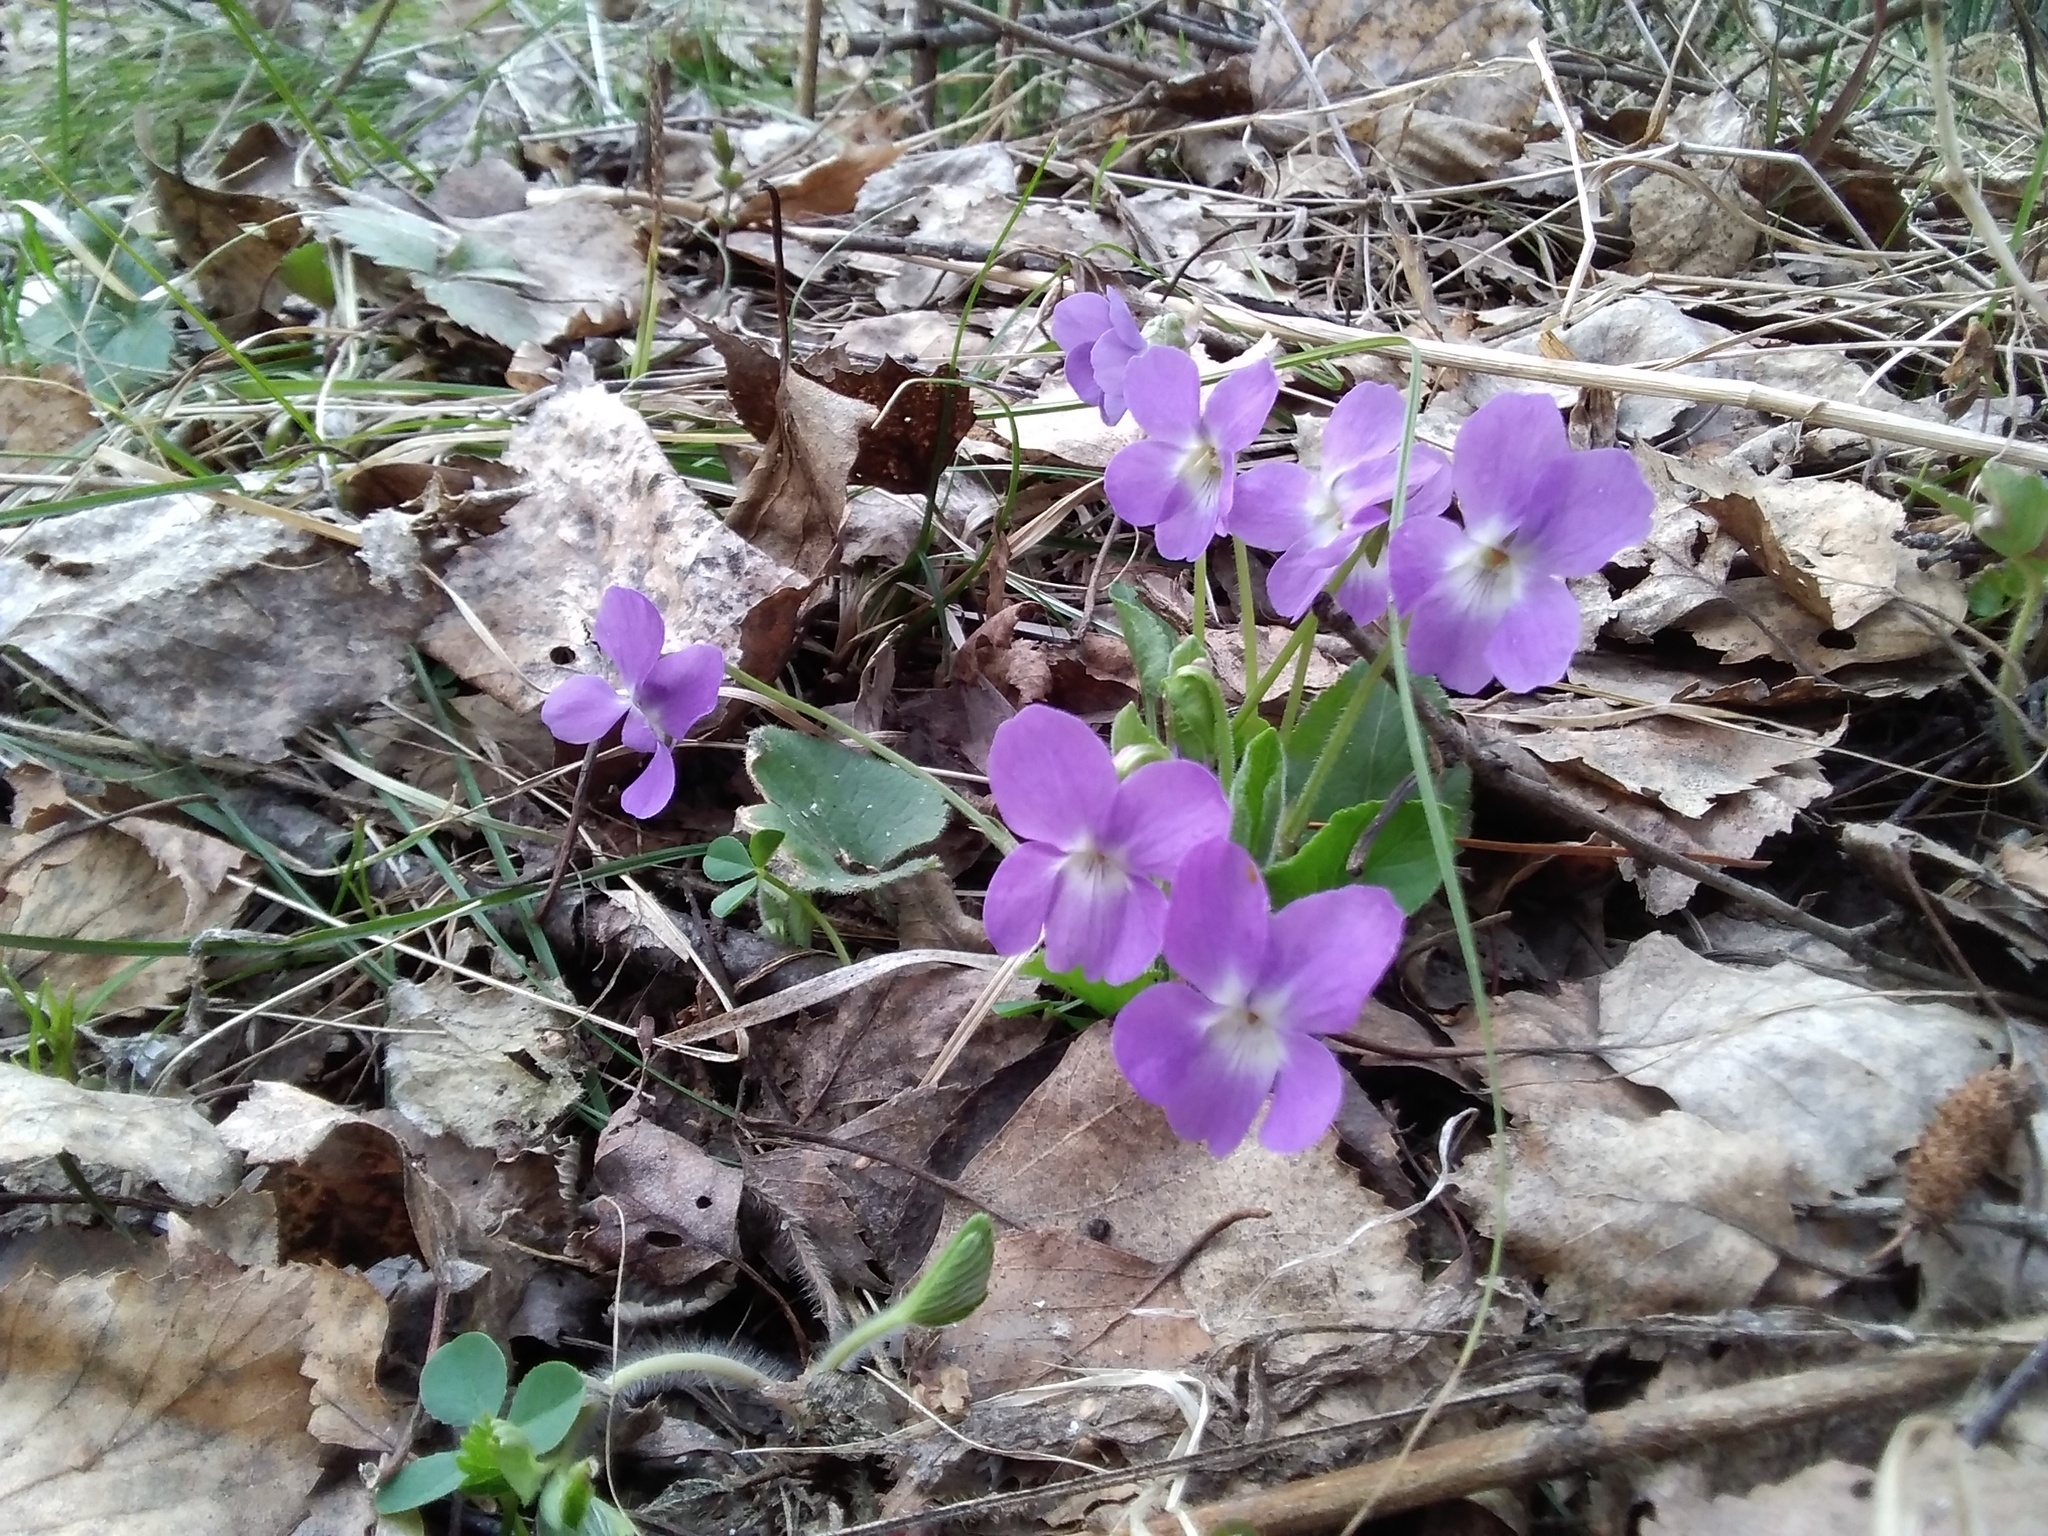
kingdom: Plantae
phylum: Tracheophyta
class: Magnoliopsida
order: Malpighiales
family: Violaceae
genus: Viola
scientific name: Viola hirta
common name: Hairy violet
